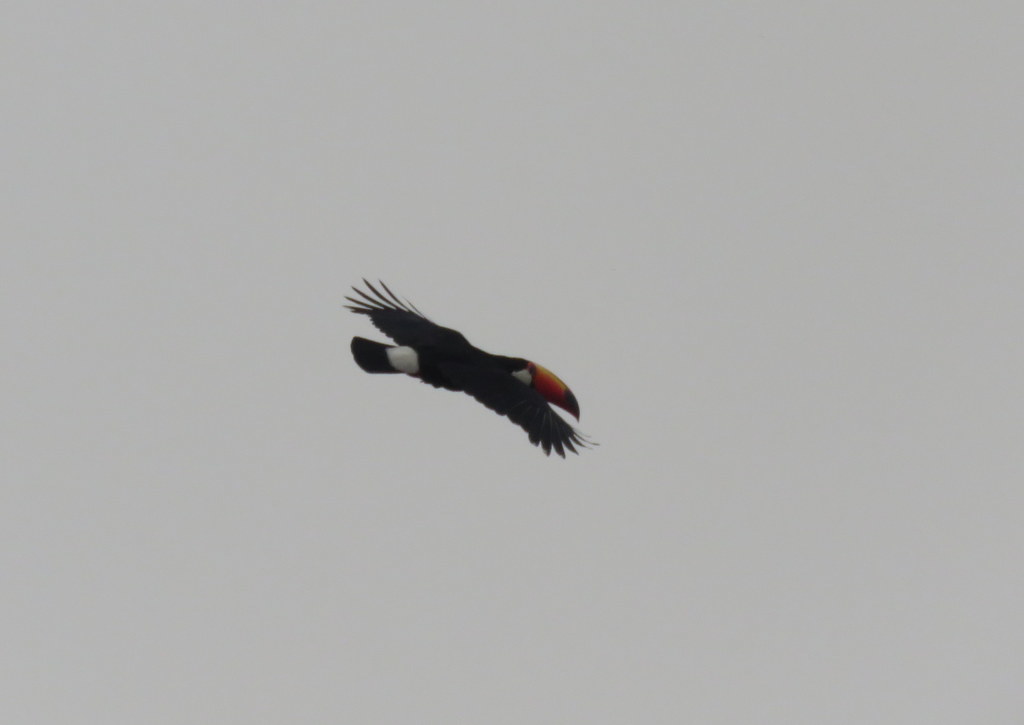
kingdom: Animalia
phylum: Chordata
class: Aves
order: Piciformes
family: Ramphastidae
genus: Ramphastos
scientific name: Ramphastos toco
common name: Toco toucan
